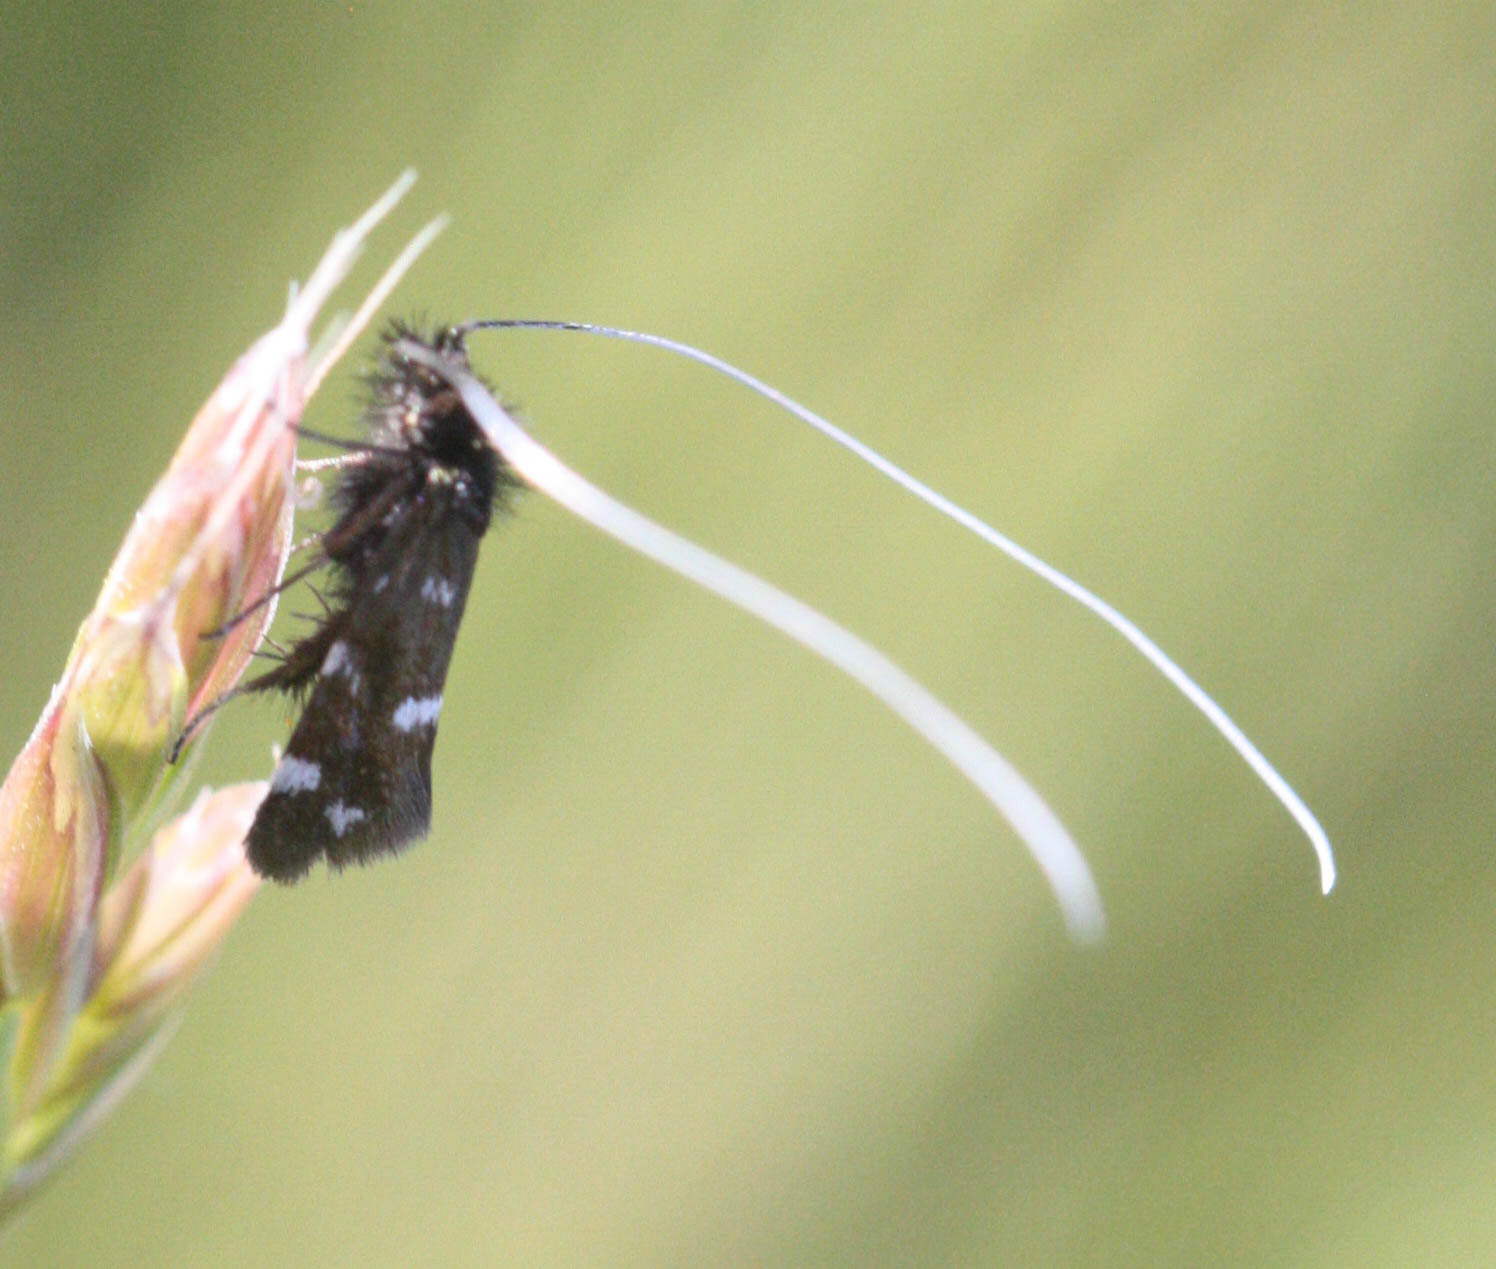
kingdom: Animalia
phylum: Arthropoda
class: Insecta
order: Lepidoptera
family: Adelidae
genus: Adela
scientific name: Adela flammeusella
